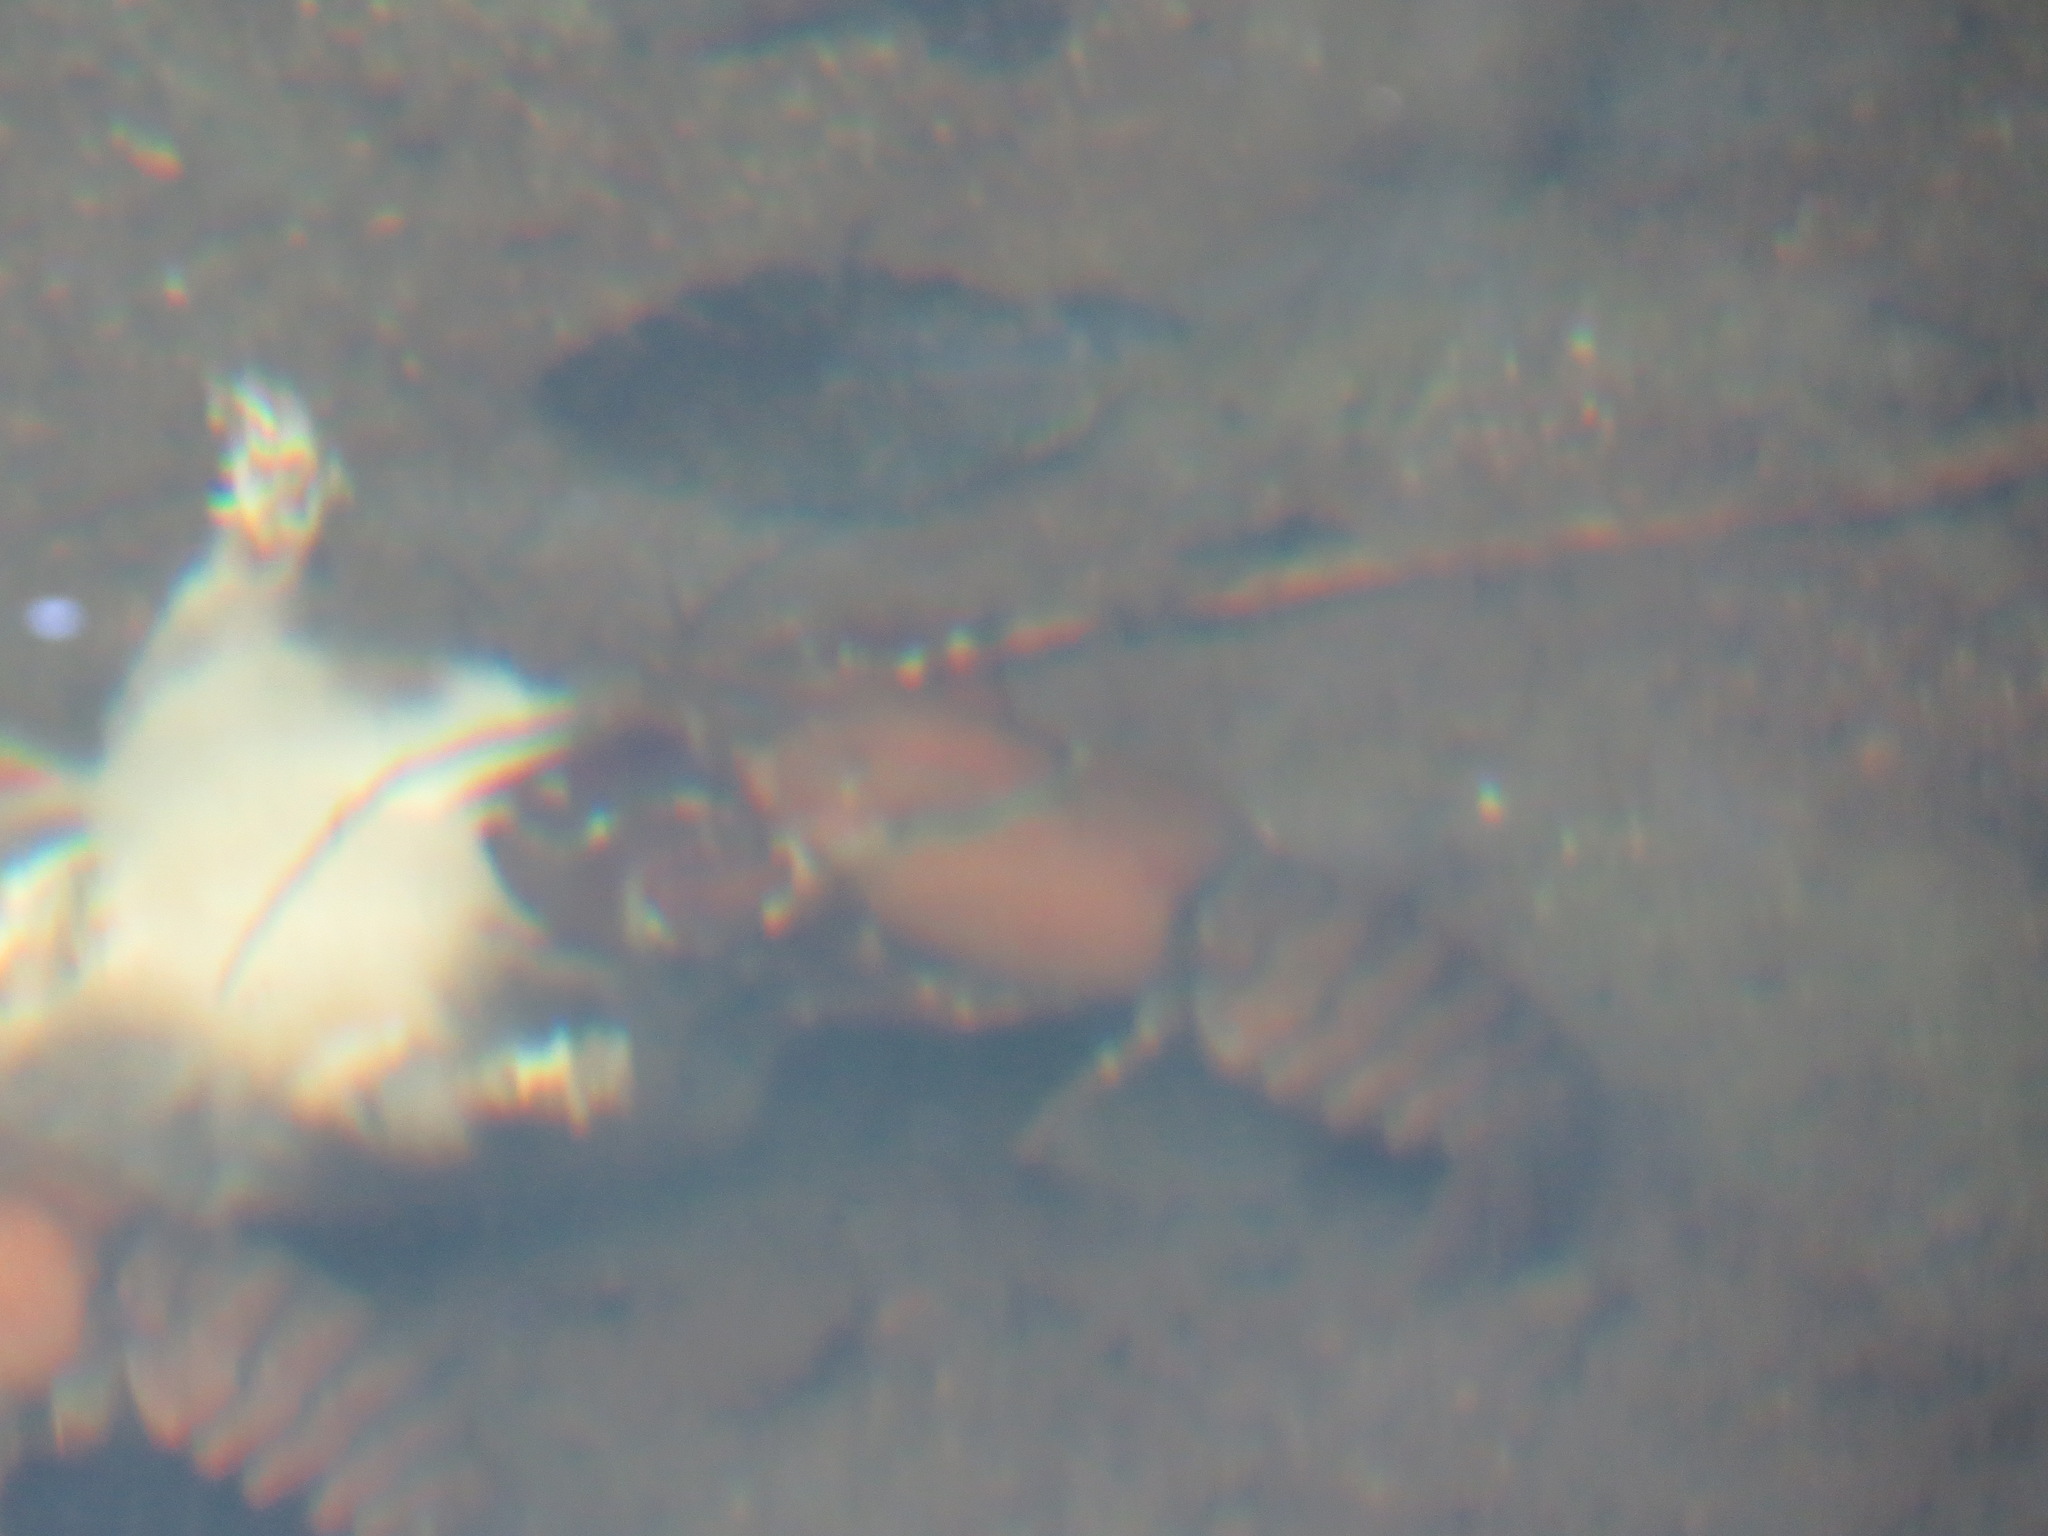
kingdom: Animalia
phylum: Arthropoda
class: Malacostraca
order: Decapoda
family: Astacidae
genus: Pacifastacus
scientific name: Pacifastacus leniusculus
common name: Signal crayfish
